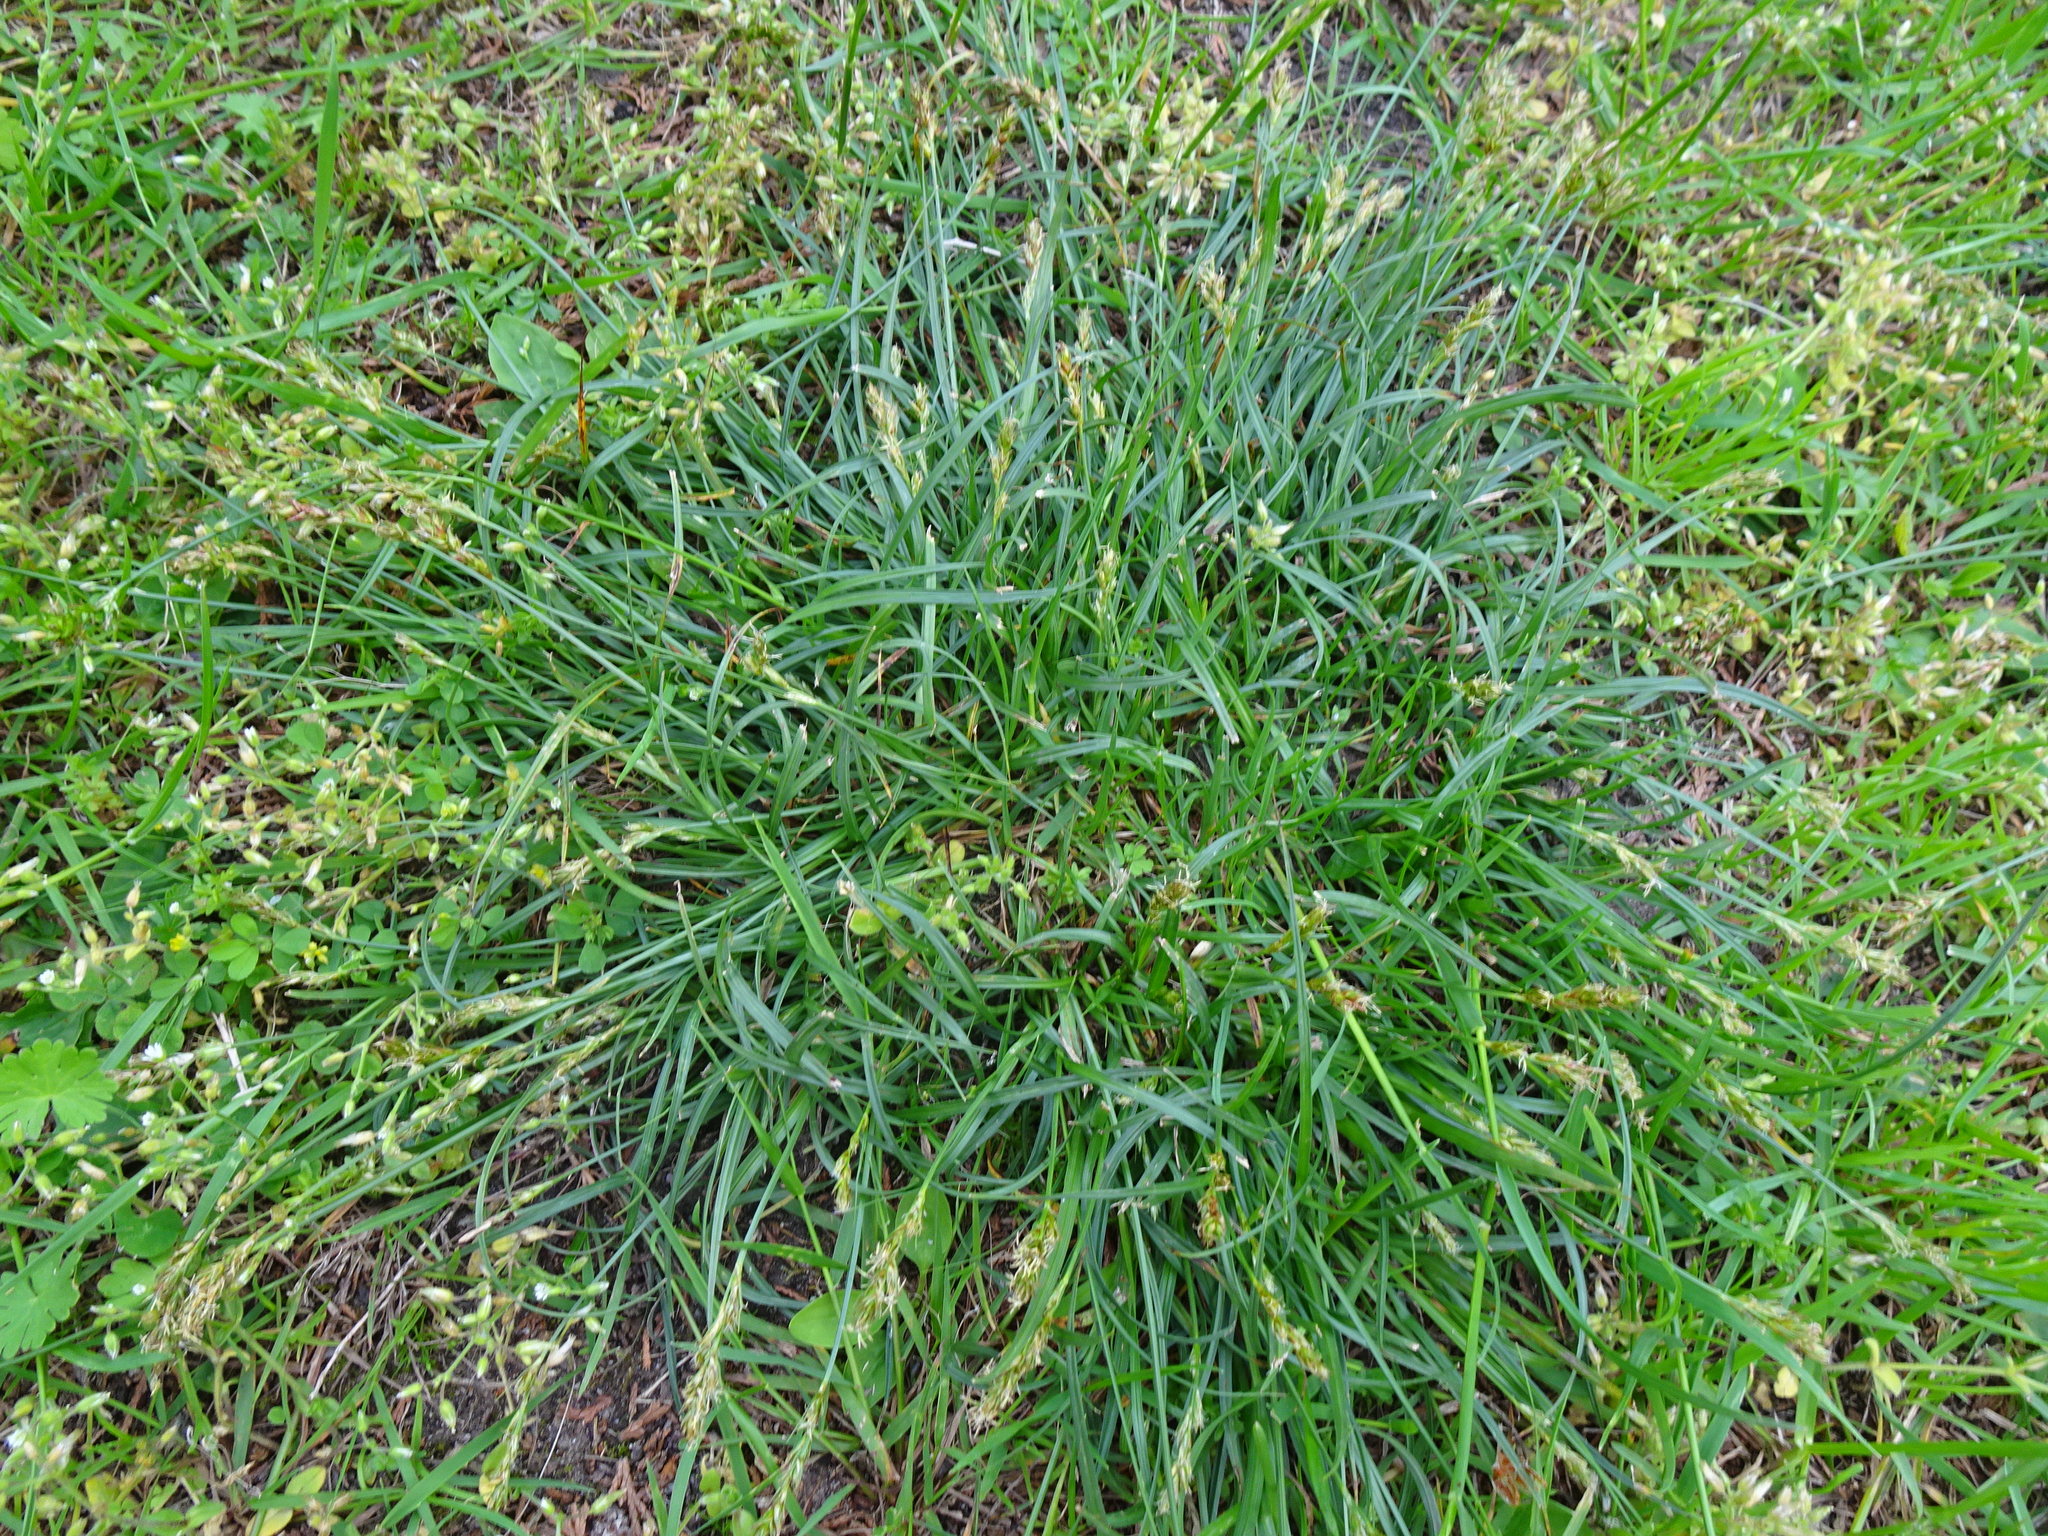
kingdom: Plantae
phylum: Tracheophyta
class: Liliopsida
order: Poales
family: Cyperaceae
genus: Carex
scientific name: Carex leporina
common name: Oval sedge
